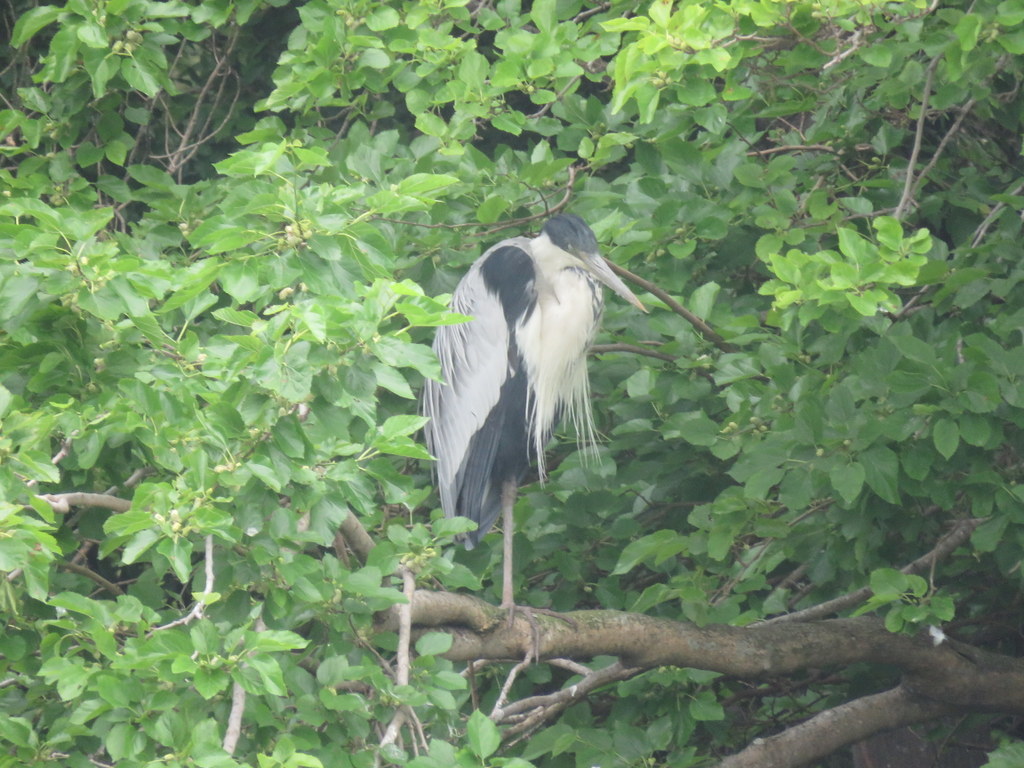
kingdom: Animalia
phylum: Chordata
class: Aves
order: Pelecaniformes
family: Ardeidae
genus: Ardea
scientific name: Ardea cocoi
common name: Cocoi heron
